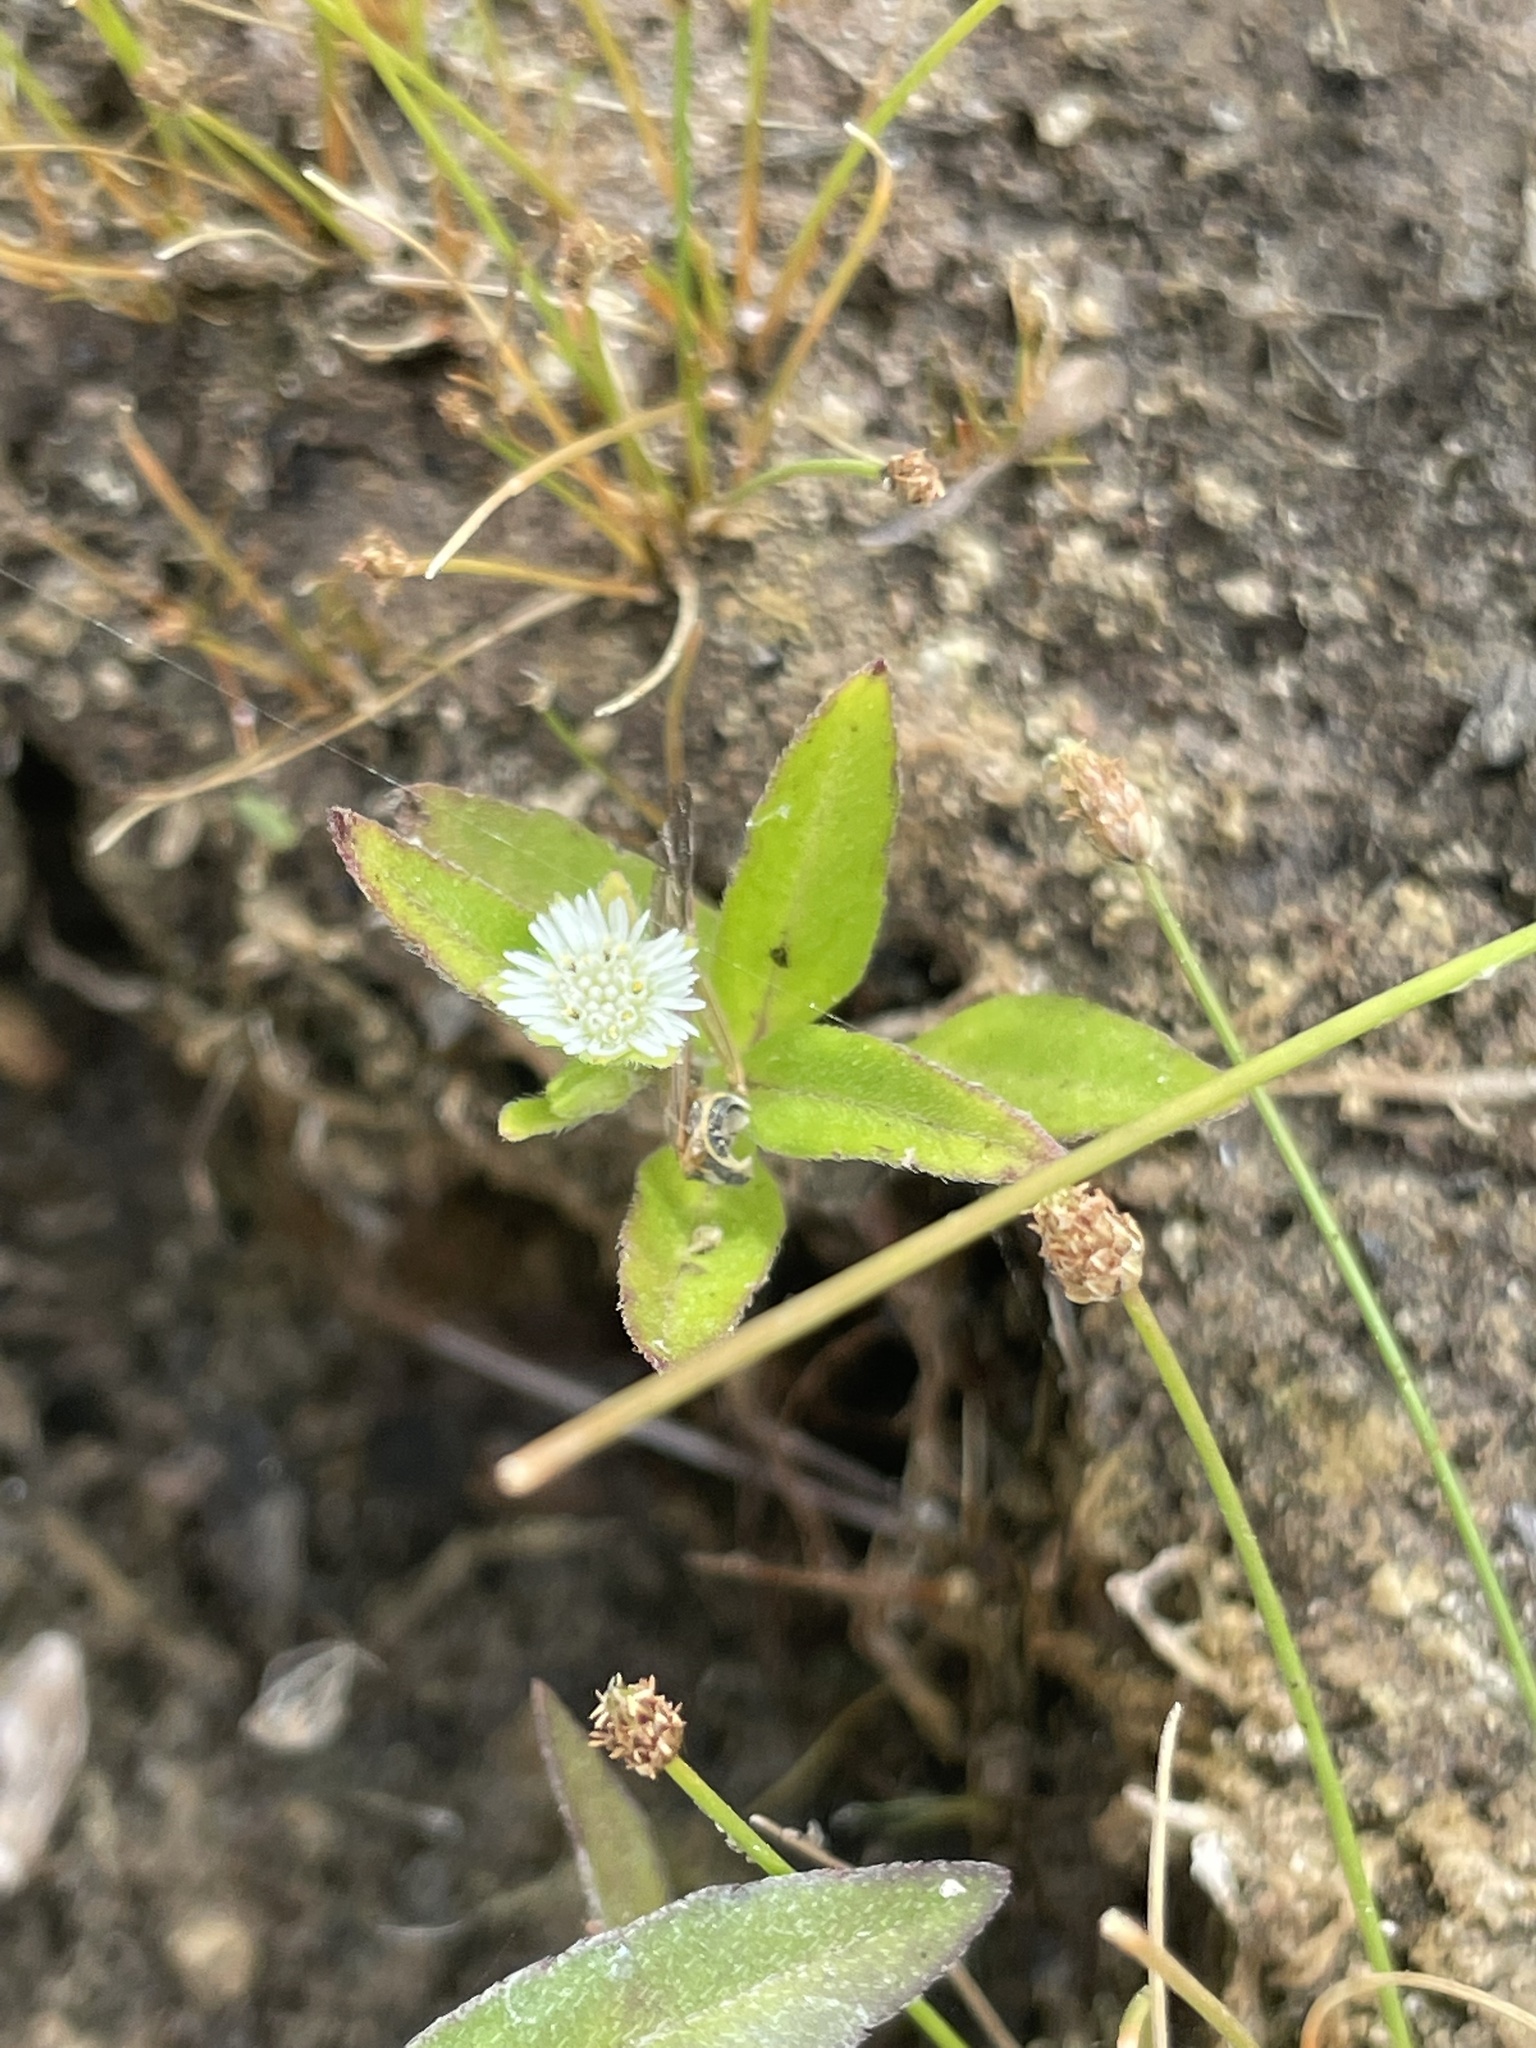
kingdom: Plantae
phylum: Tracheophyta
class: Magnoliopsida
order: Asterales
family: Asteraceae
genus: Eclipta
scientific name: Eclipta prostrata
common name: False daisy
